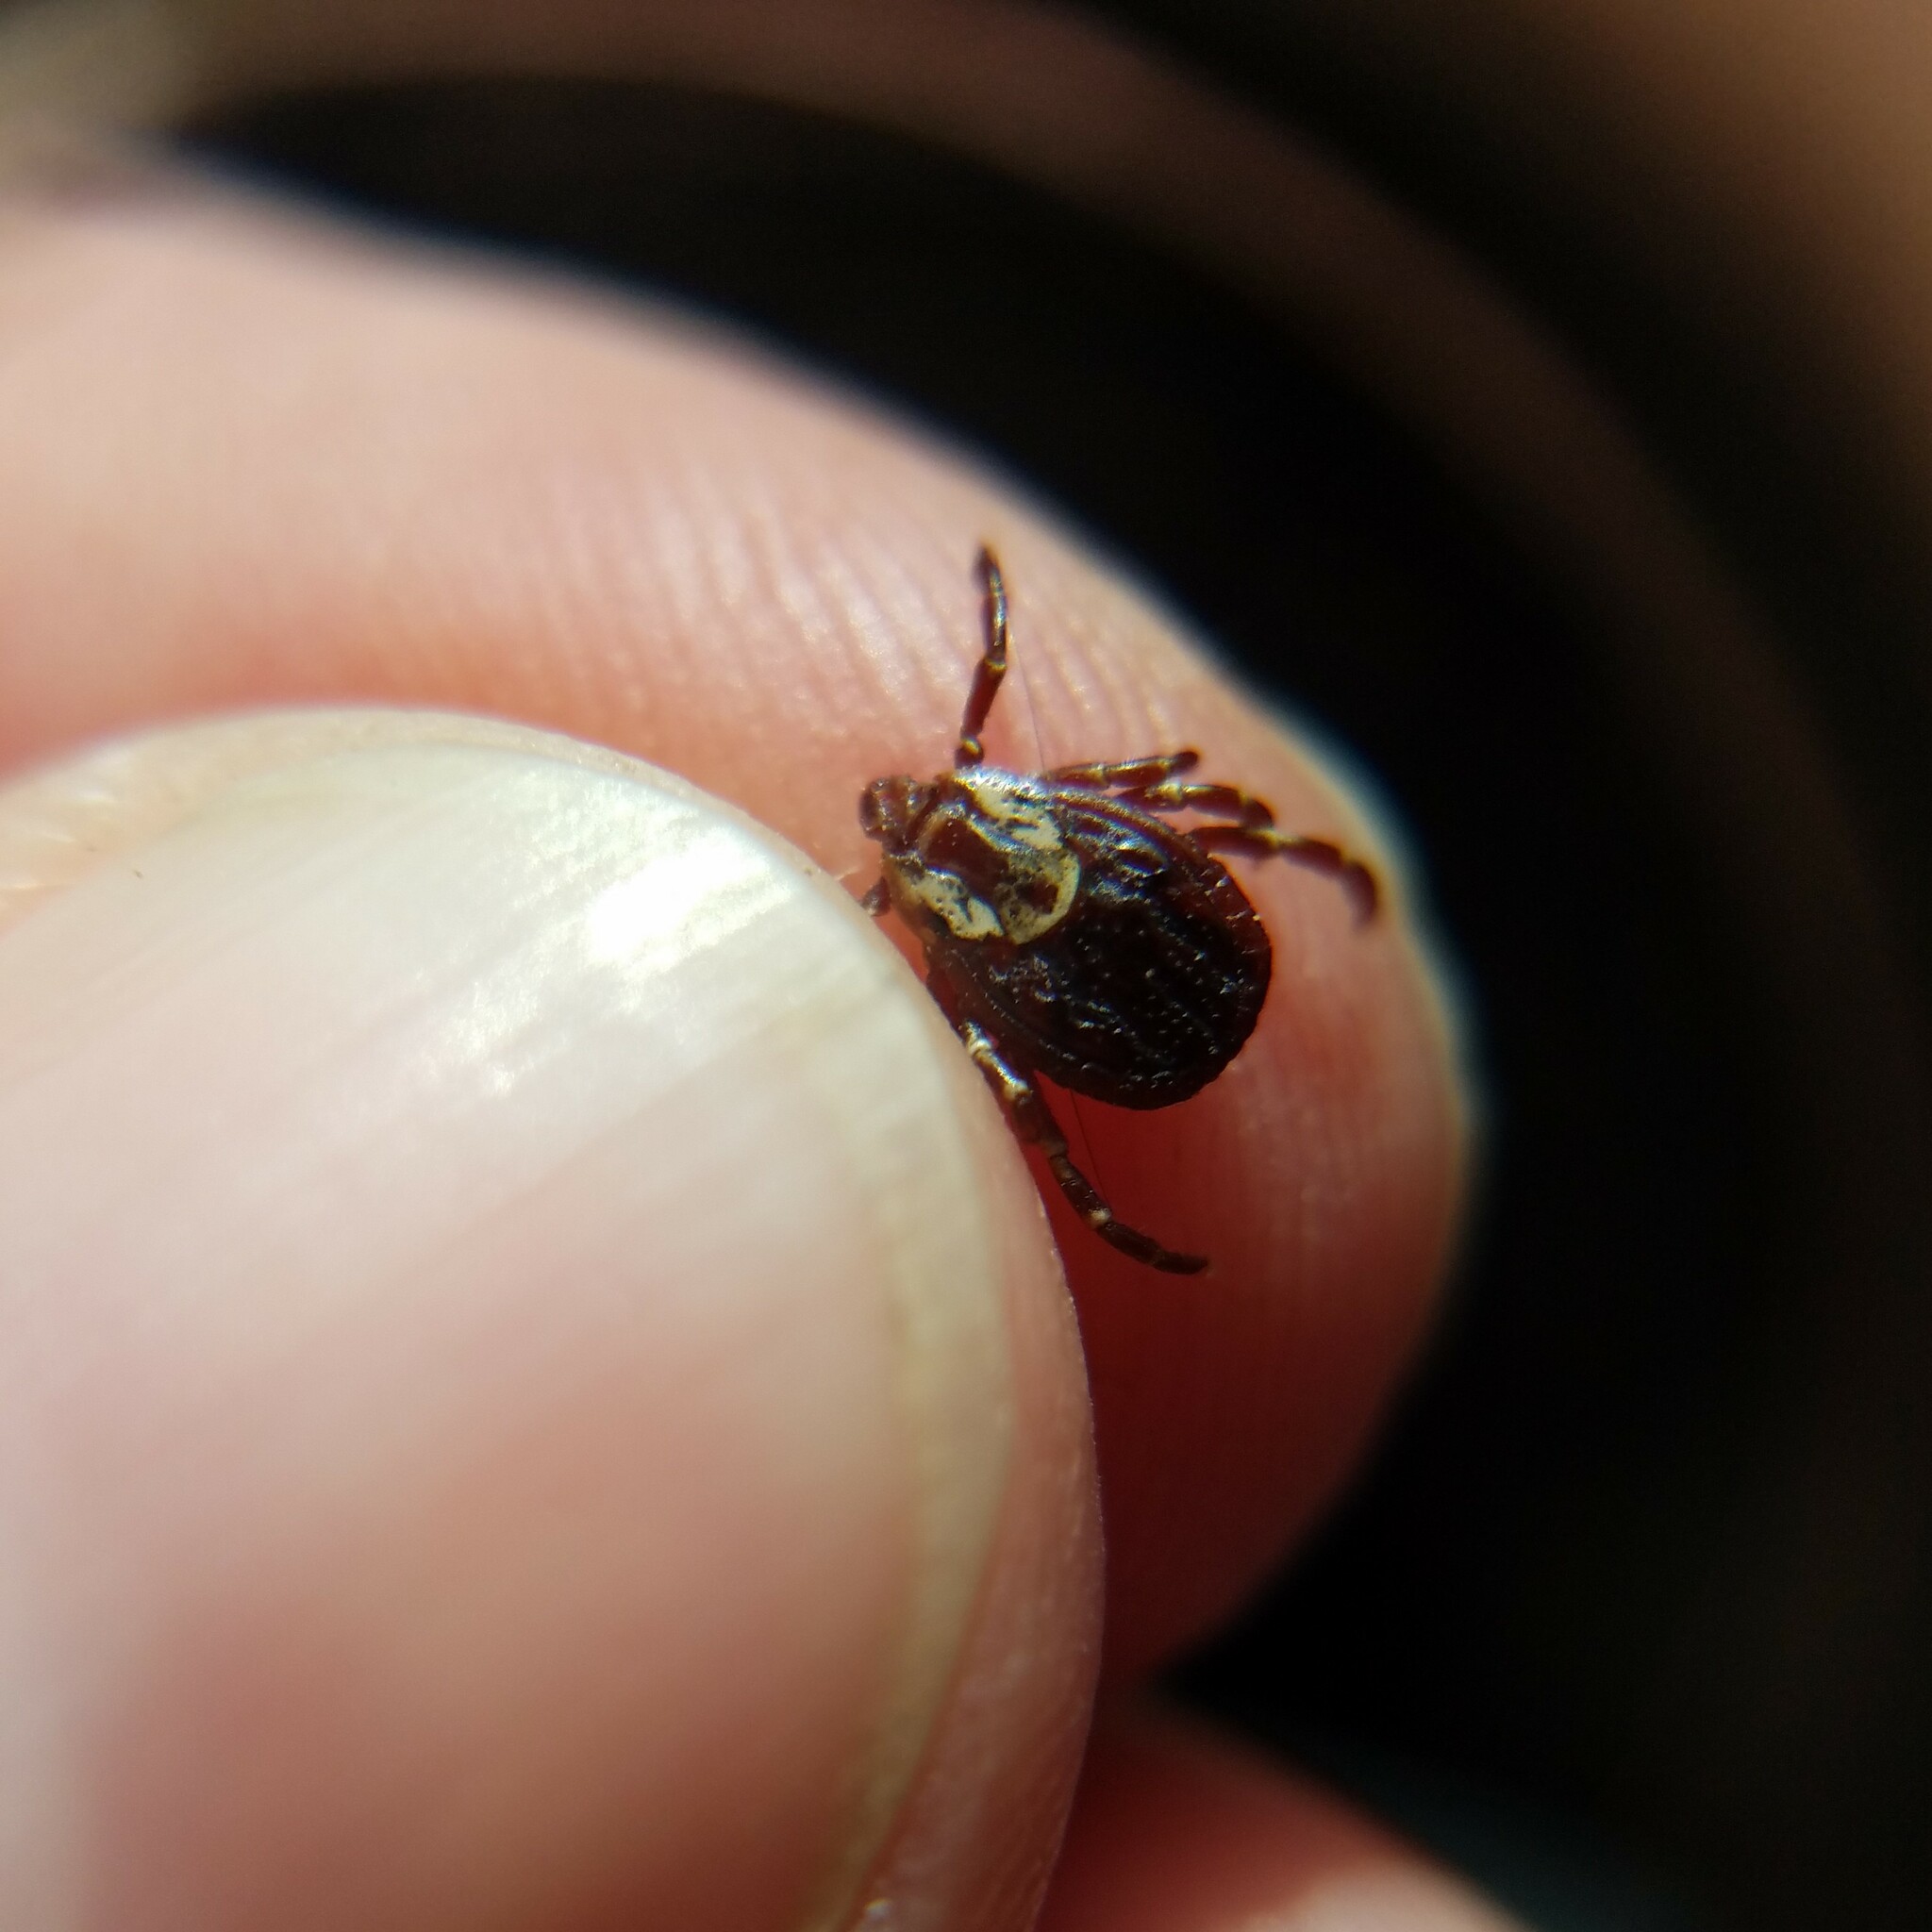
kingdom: Animalia
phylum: Arthropoda
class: Arachnida
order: Ixodida
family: Ixodidae
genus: Dermacentor
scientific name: Dermacentor variabilis
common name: American dog tick
